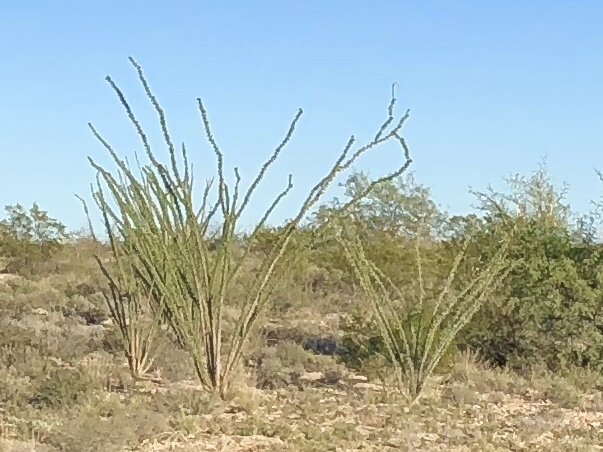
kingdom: Plantae
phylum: Tracheophyta
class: Magnoliopsida
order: Ericales
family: Fouquieriaceae
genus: Fouquieria
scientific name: Fouquieria splendens
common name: Vine-cactus
